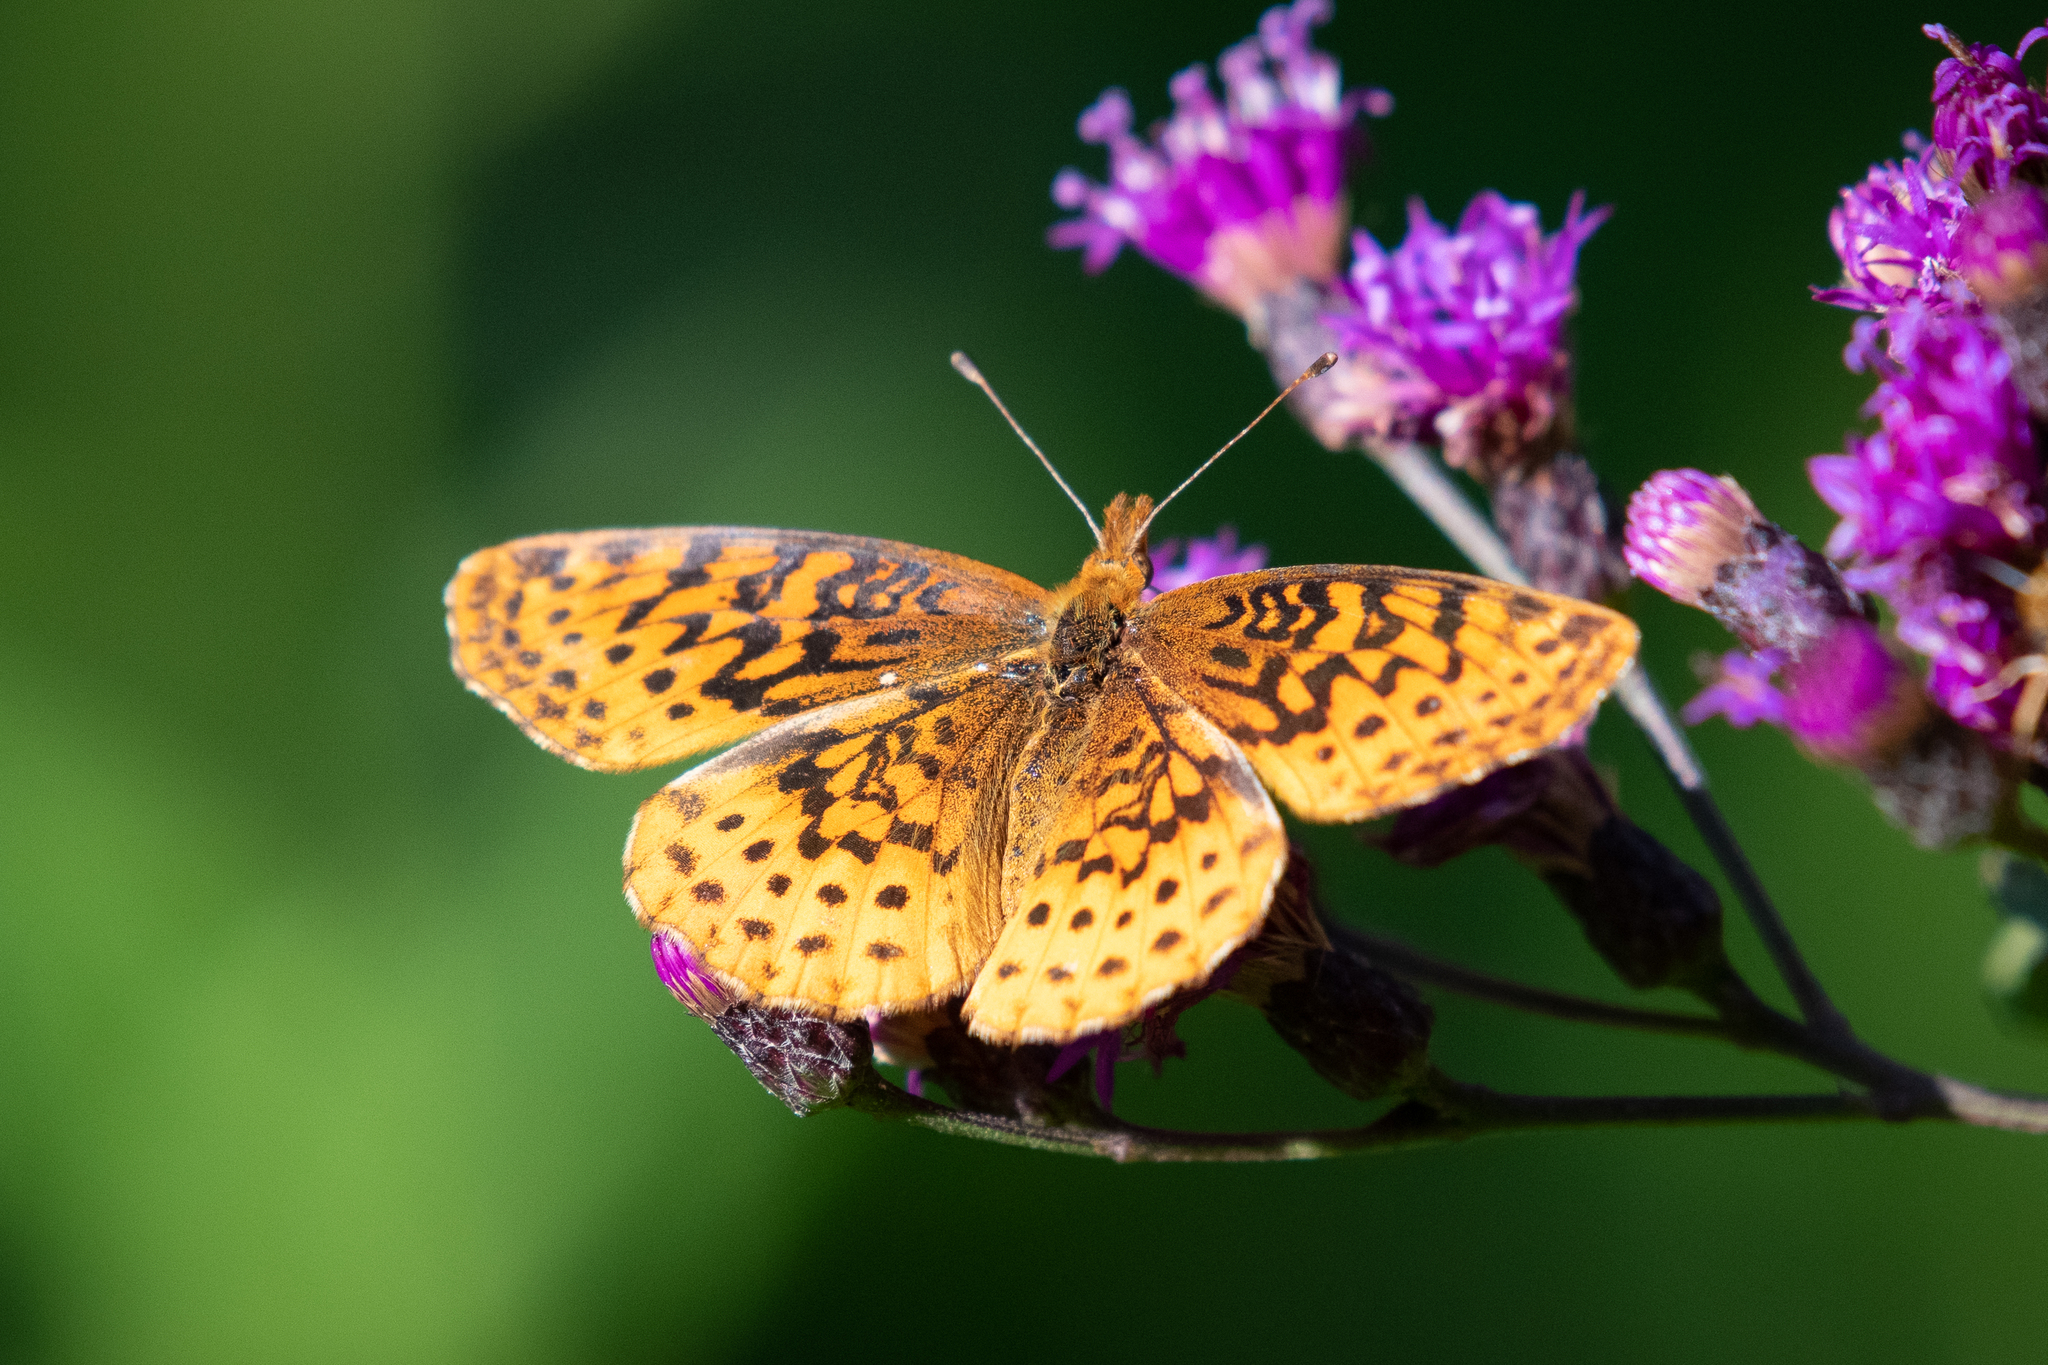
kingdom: Animalia
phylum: Arthropoda
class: Insecta
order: Lepidoptera
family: Nymphalidae
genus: Clossiana
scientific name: Clossiana toddi
